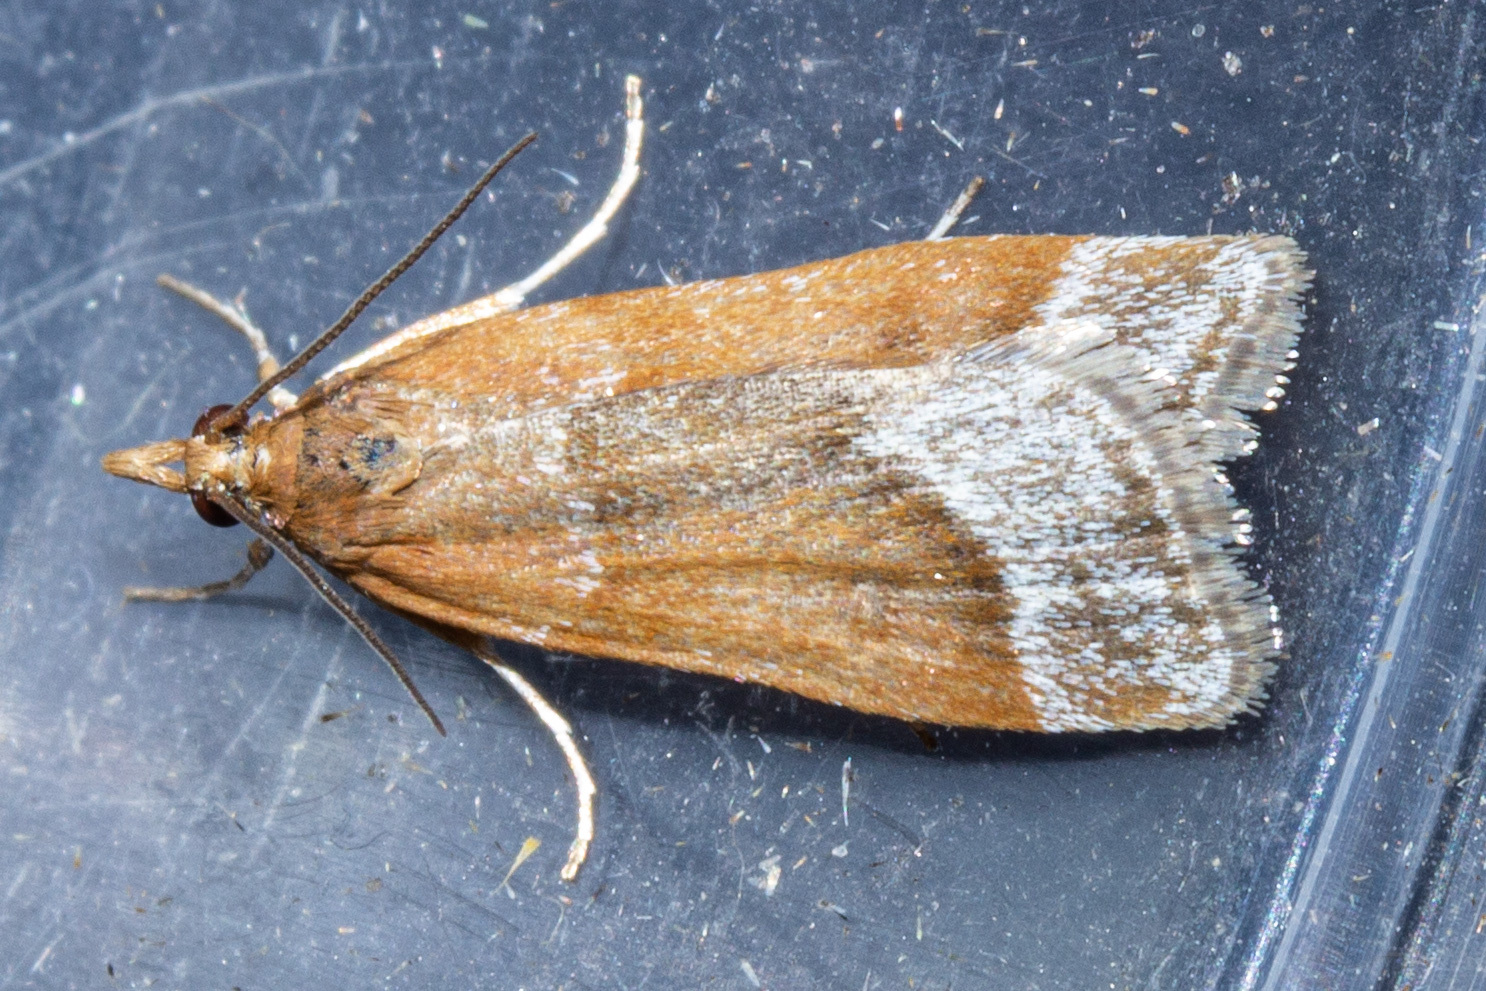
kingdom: Animalia
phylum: Arthropoda
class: Insecta
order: Lepidoptera
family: Crambidae
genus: Eudonia
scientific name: Eudonia feredayi
